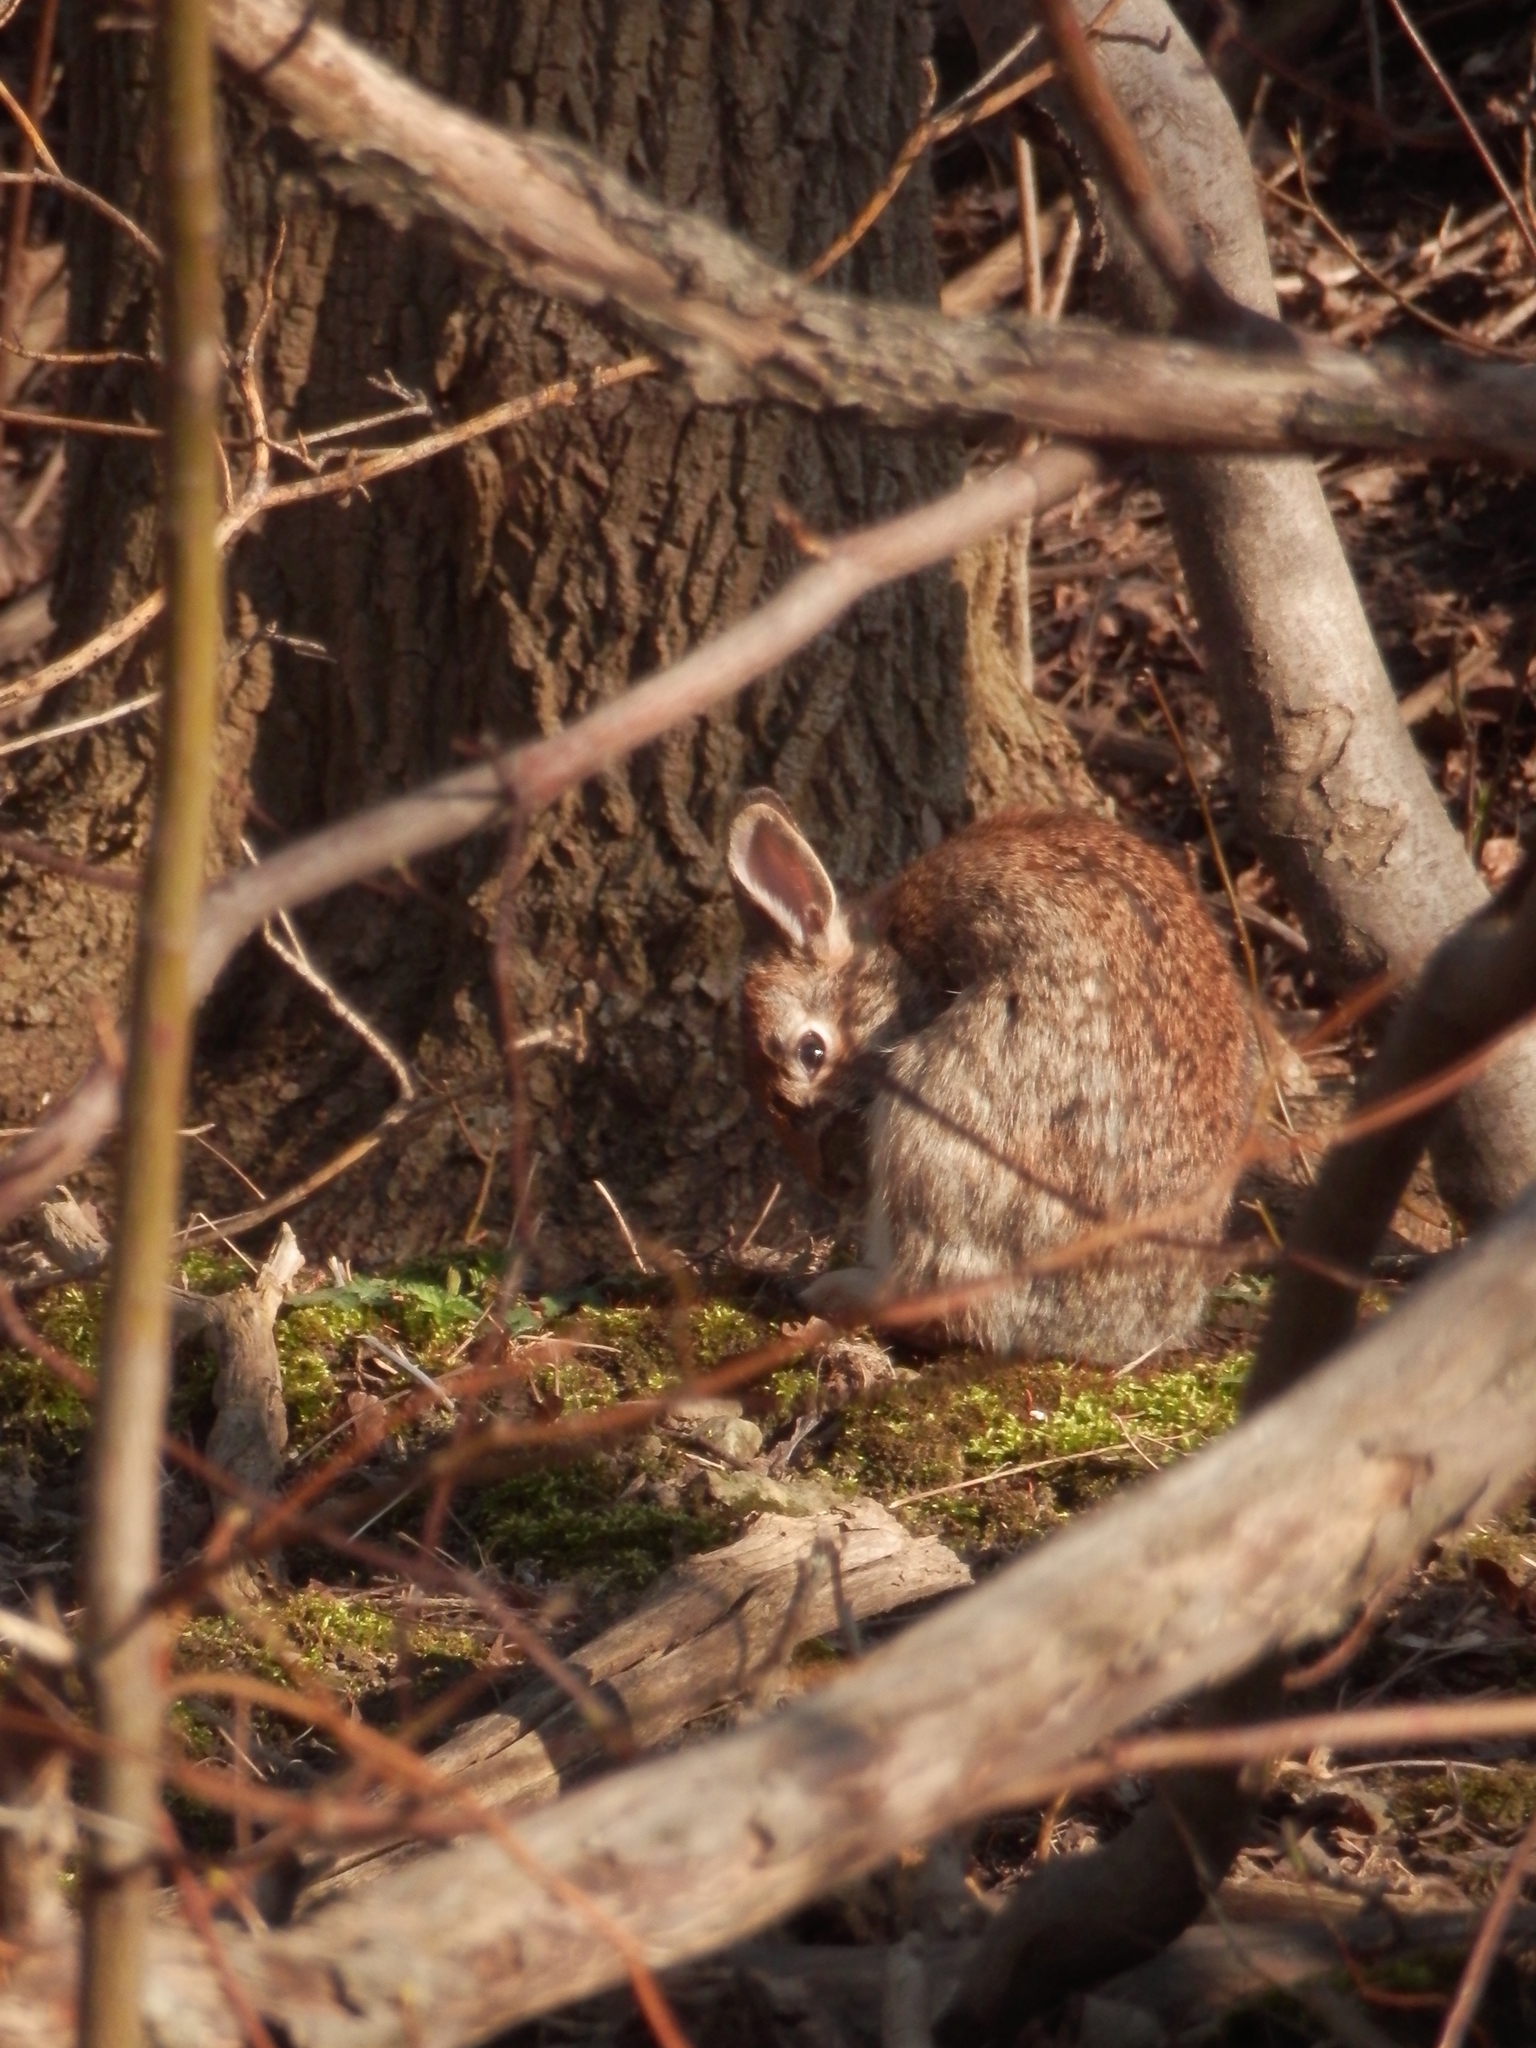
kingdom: Animalia
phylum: Chordata
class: Mammalia
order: Lagomorpha
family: Leporidae
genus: Sylvilagus
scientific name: Sylvilagus floridanus
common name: Eastern cottontail
